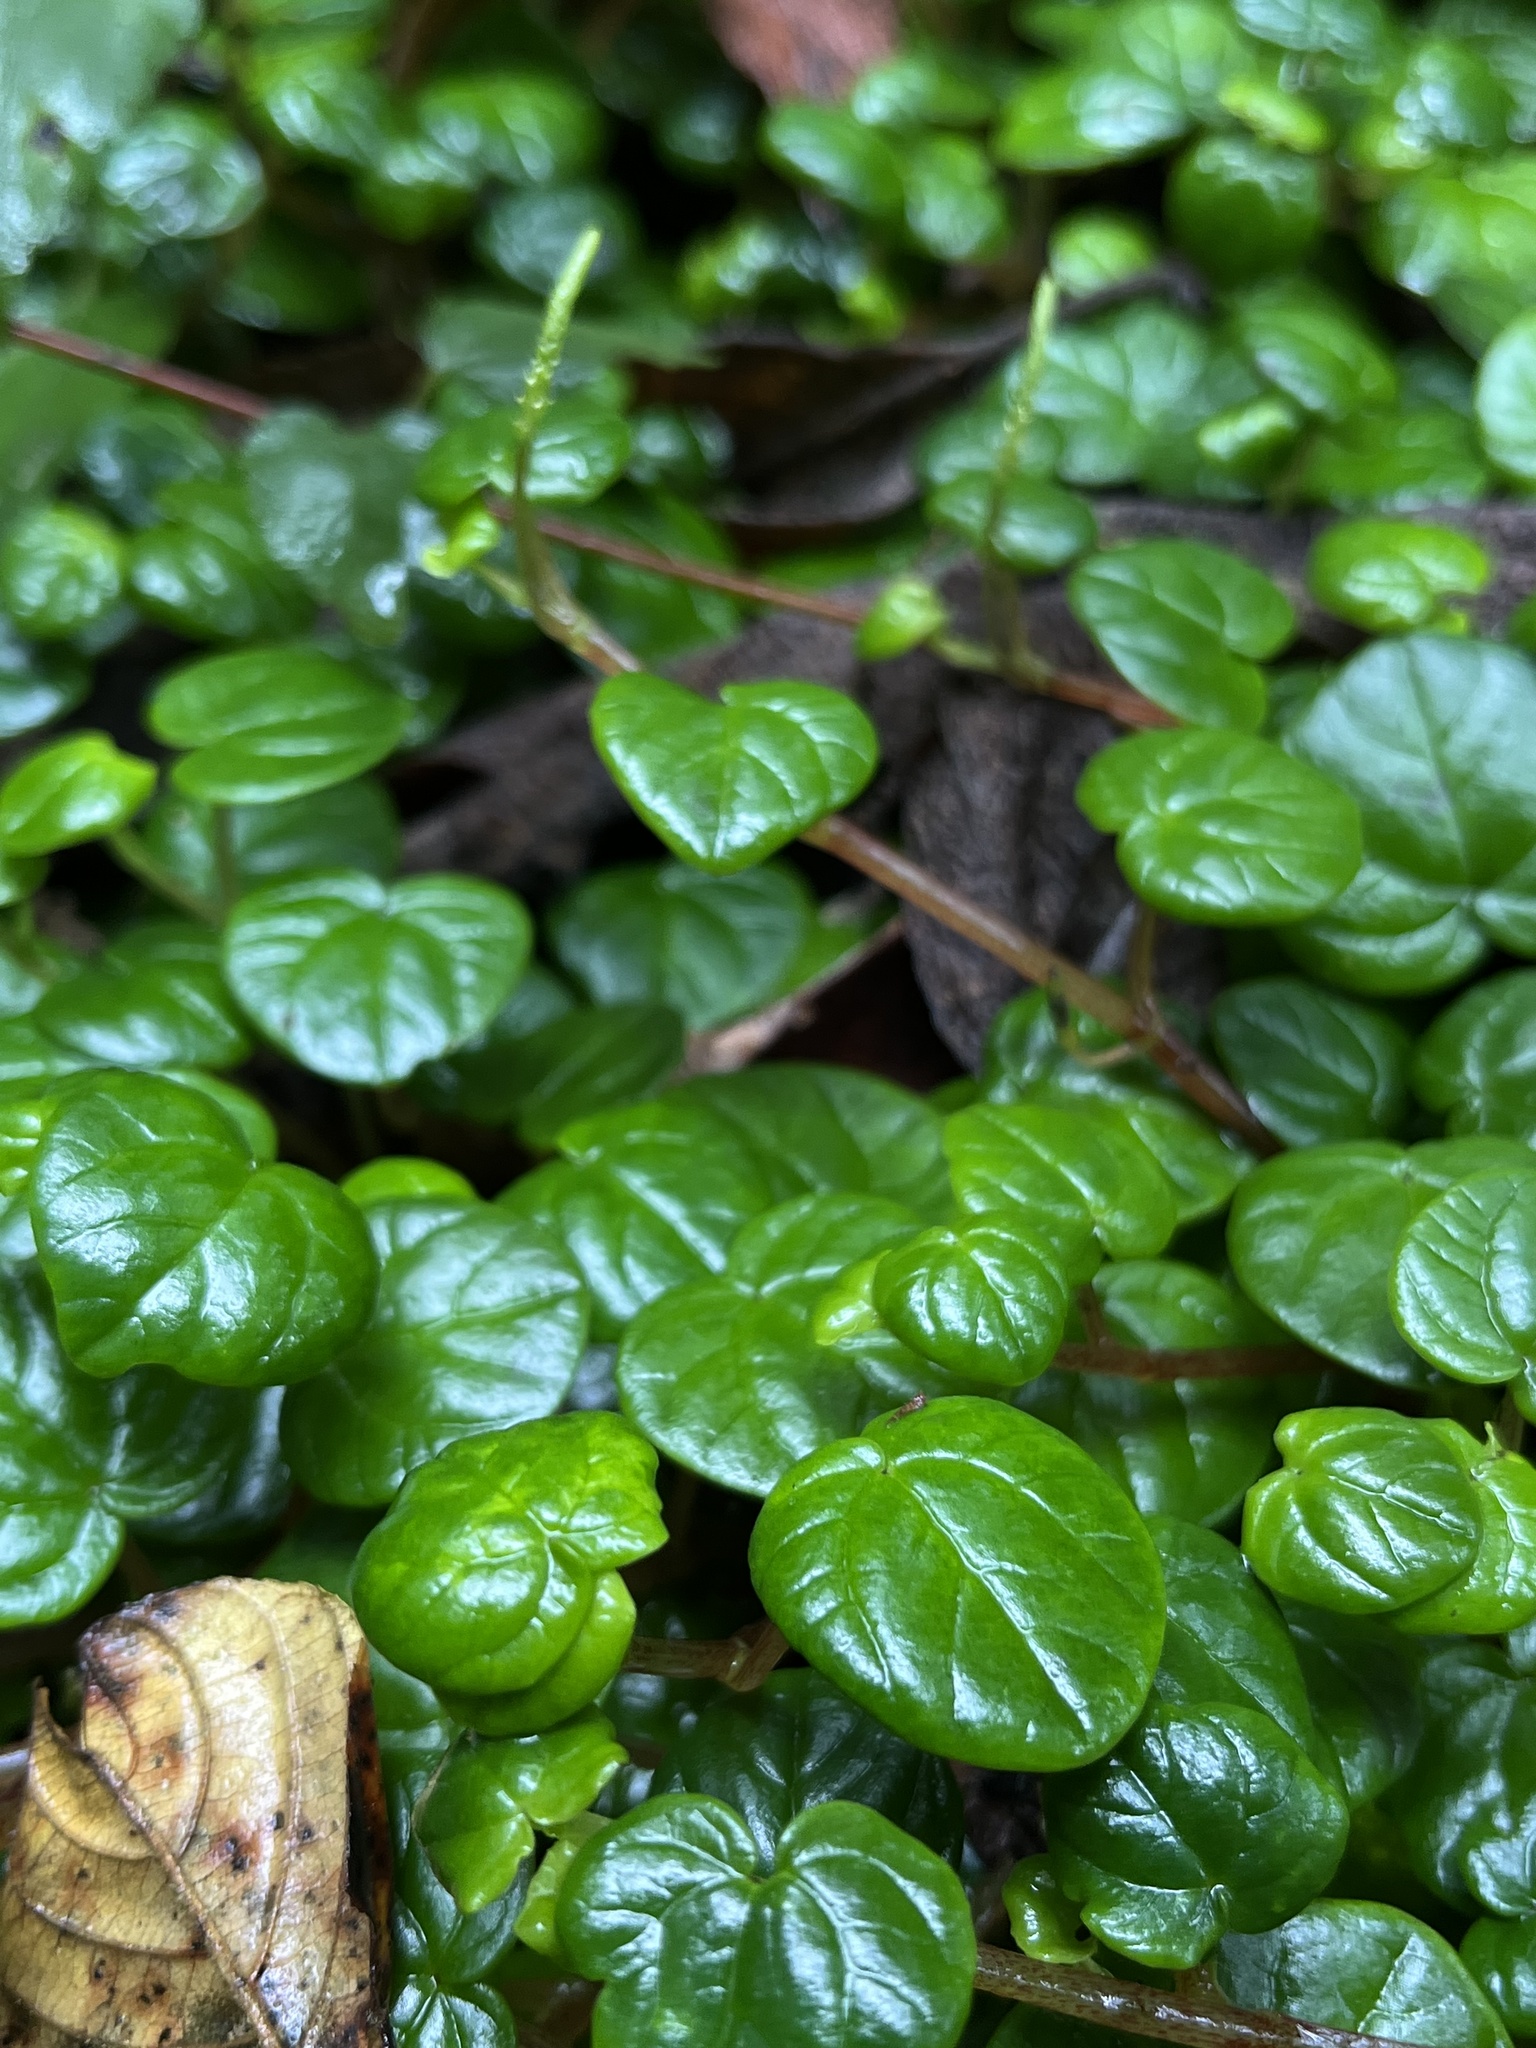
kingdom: Plantae
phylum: Tracheophyta
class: Magnoliopsida
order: Piperales
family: Piperaceae
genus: Peperomia
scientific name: Peperomia ubate-susanensis
